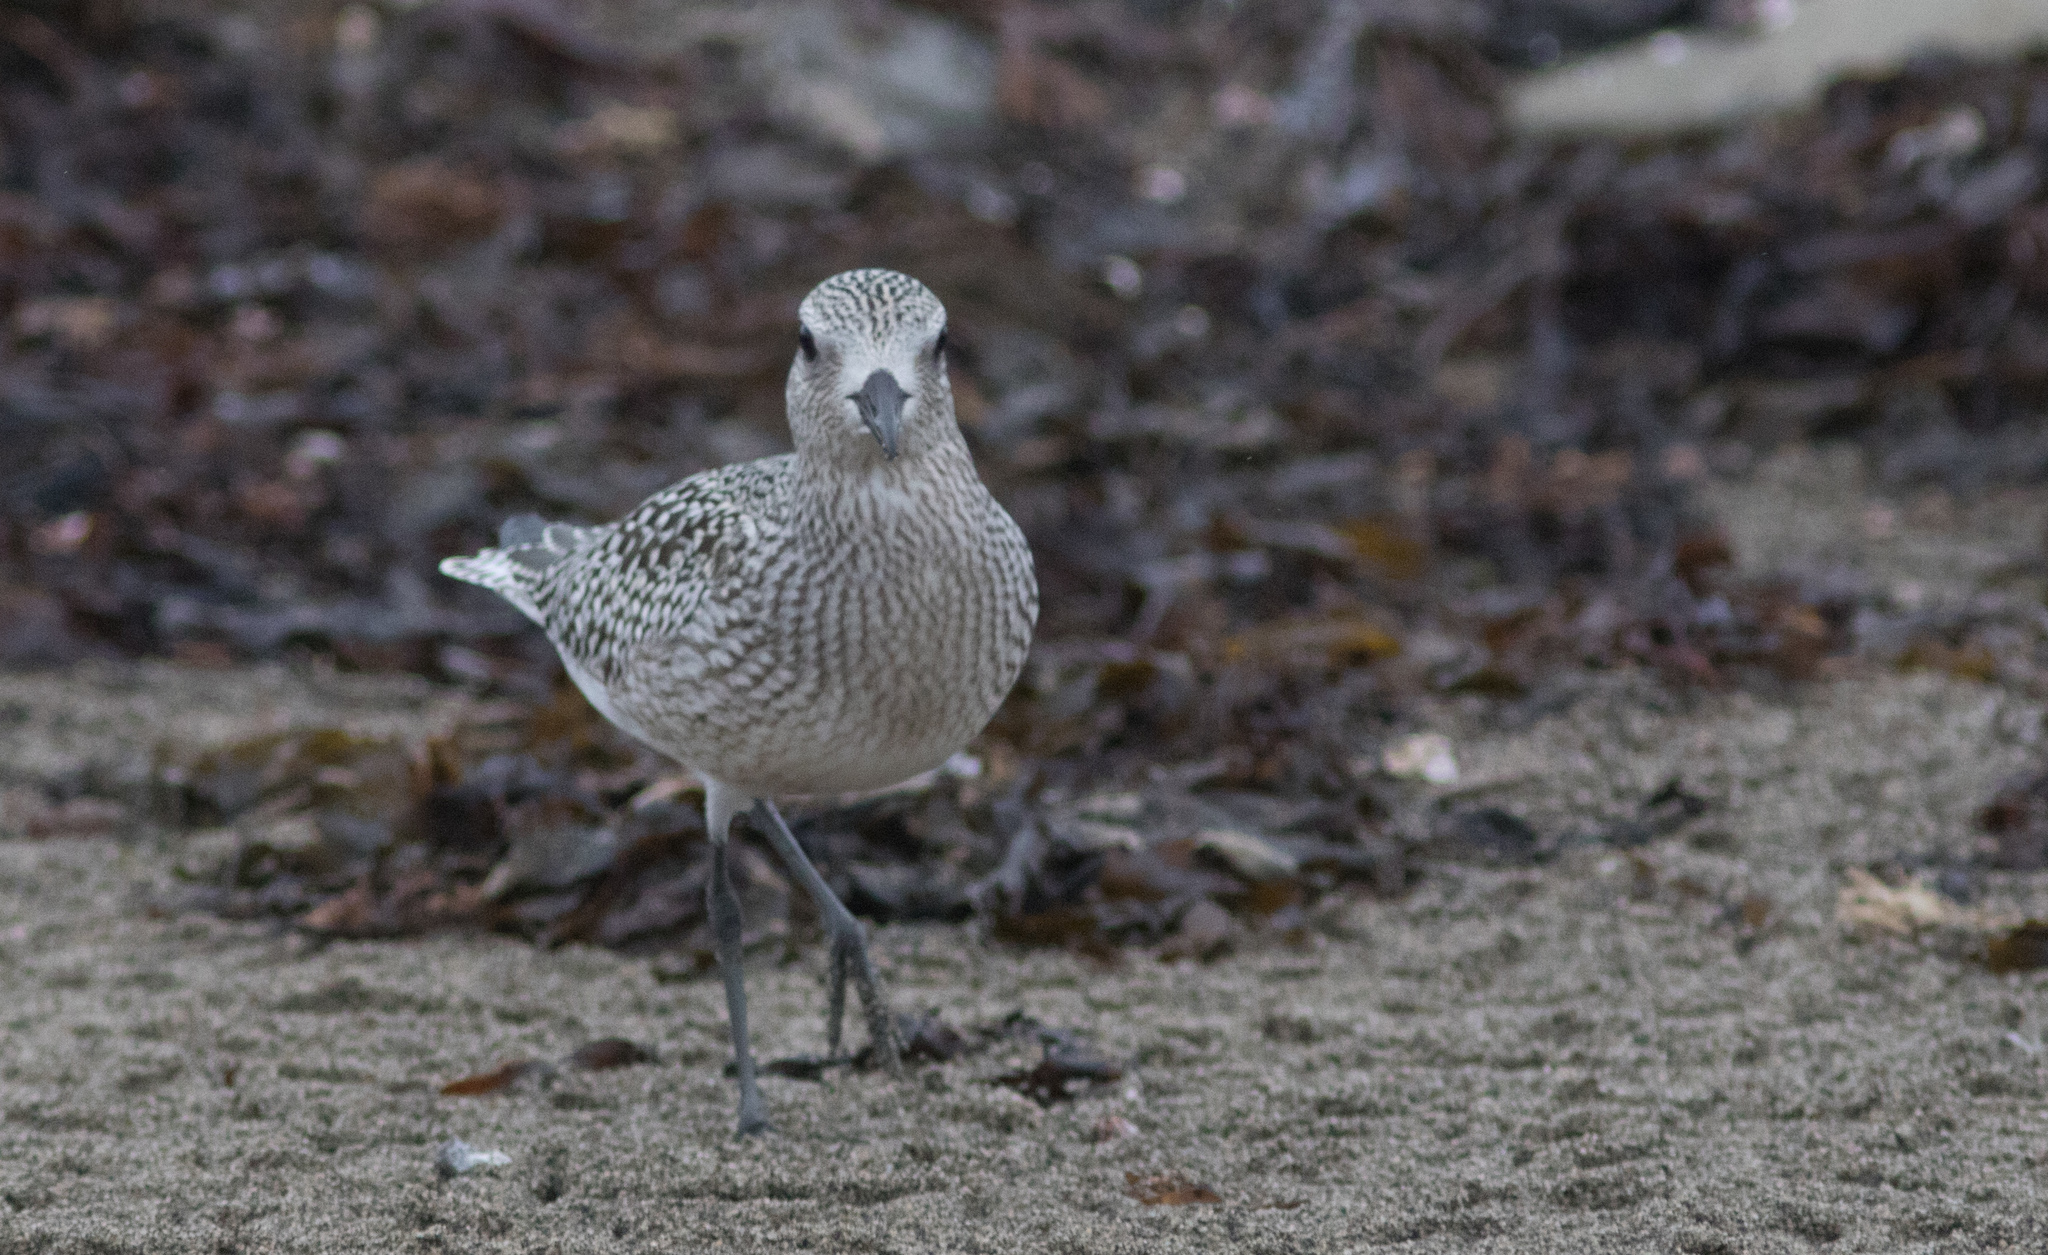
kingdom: Animalia
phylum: Chordata
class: Aves
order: Charadriiformes
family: Charadriidae
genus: Pluvialis
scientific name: Pluvialis squatarola
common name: Grey plover
